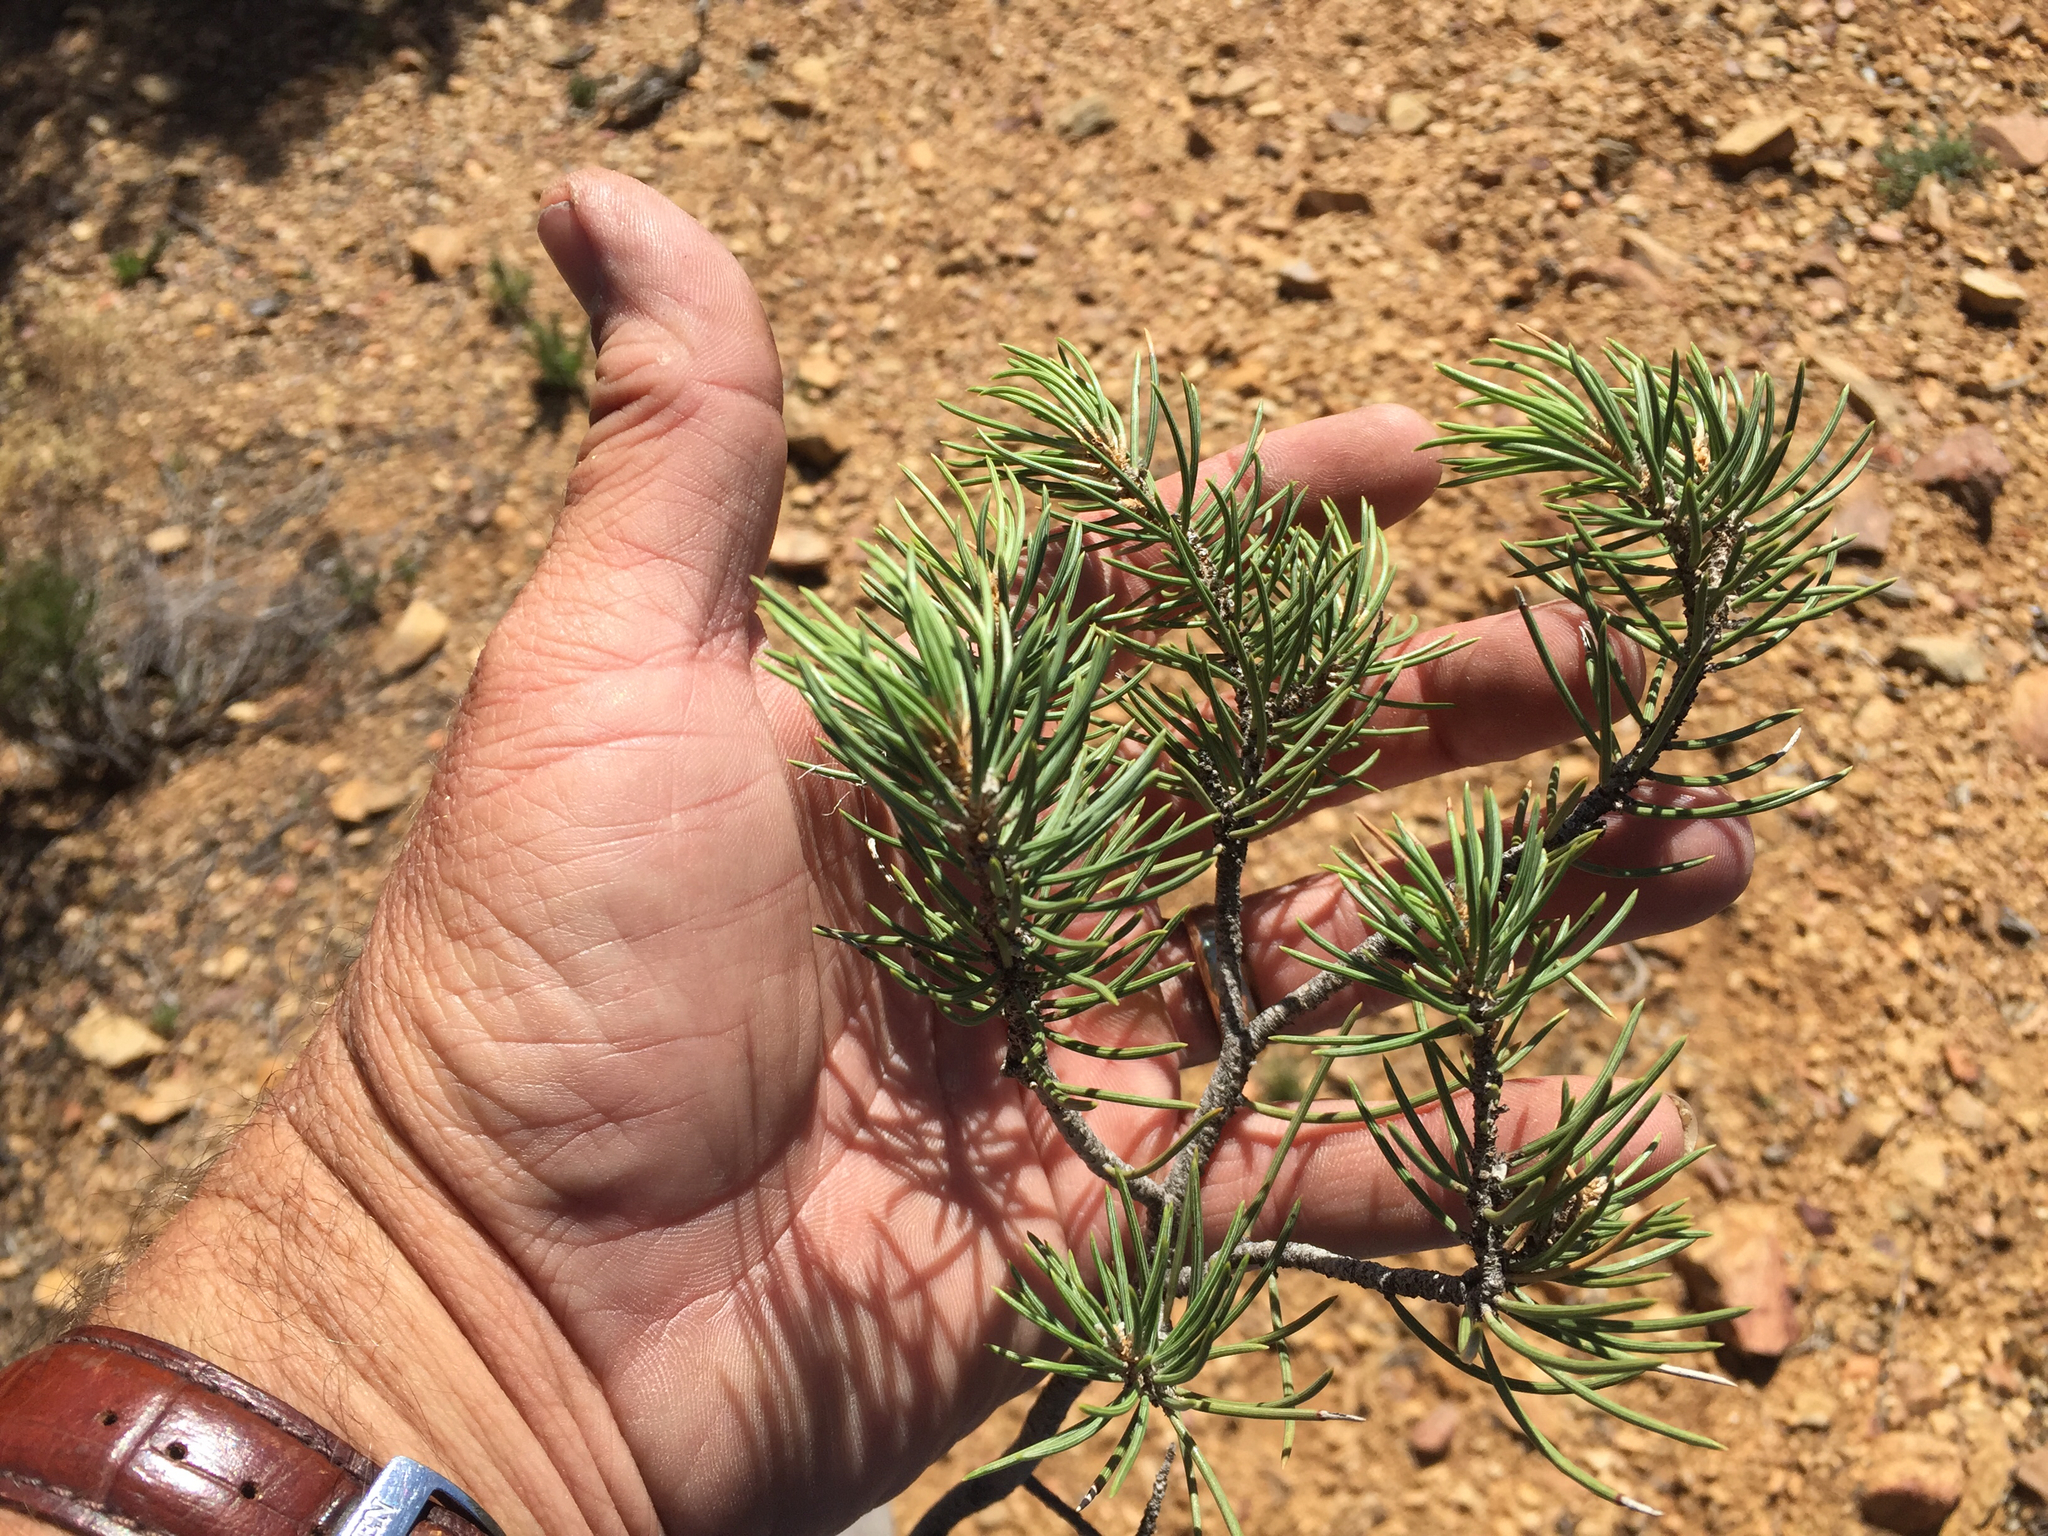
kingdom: Plantae
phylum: Tracheophyta
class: Pinopsida
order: Pinales
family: Pinaceae
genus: Pinus
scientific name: Pinus monophylla
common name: One-leaved nut pine
